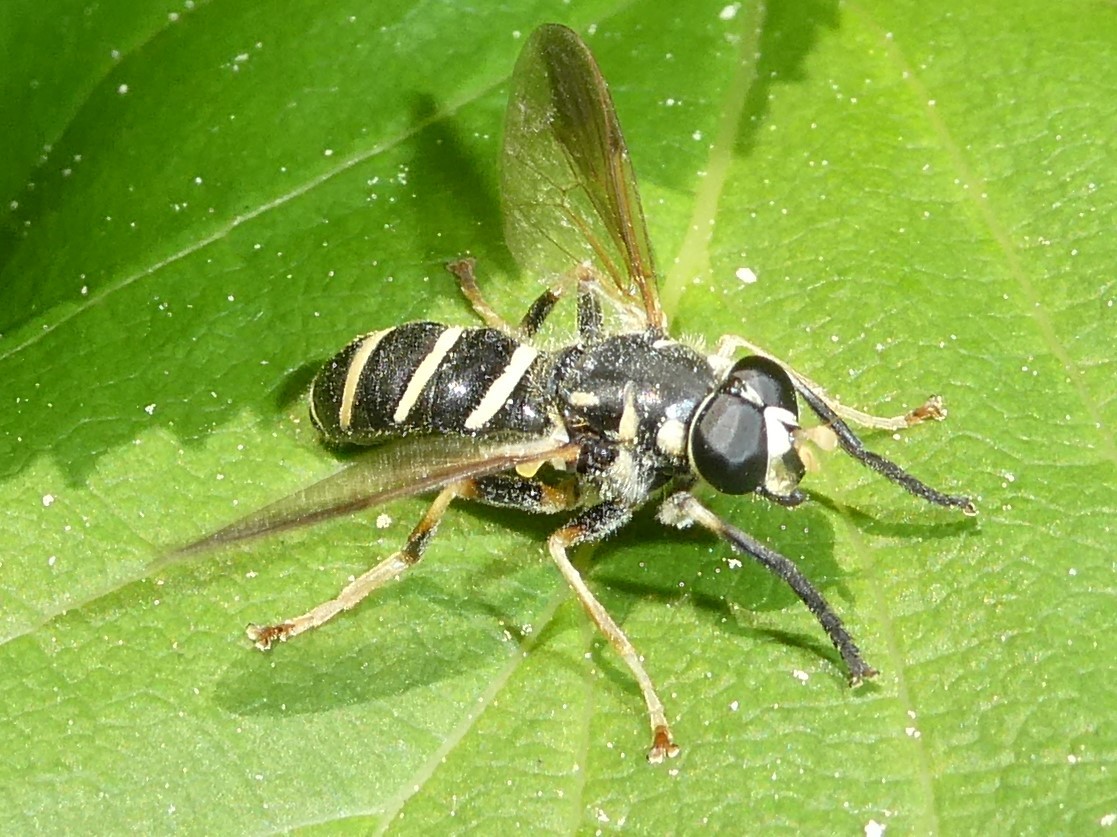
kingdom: Animalia
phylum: Arthropoda
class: Insecta
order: Diptera
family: Syrphidae
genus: Temnostoma
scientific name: Temnostoma
